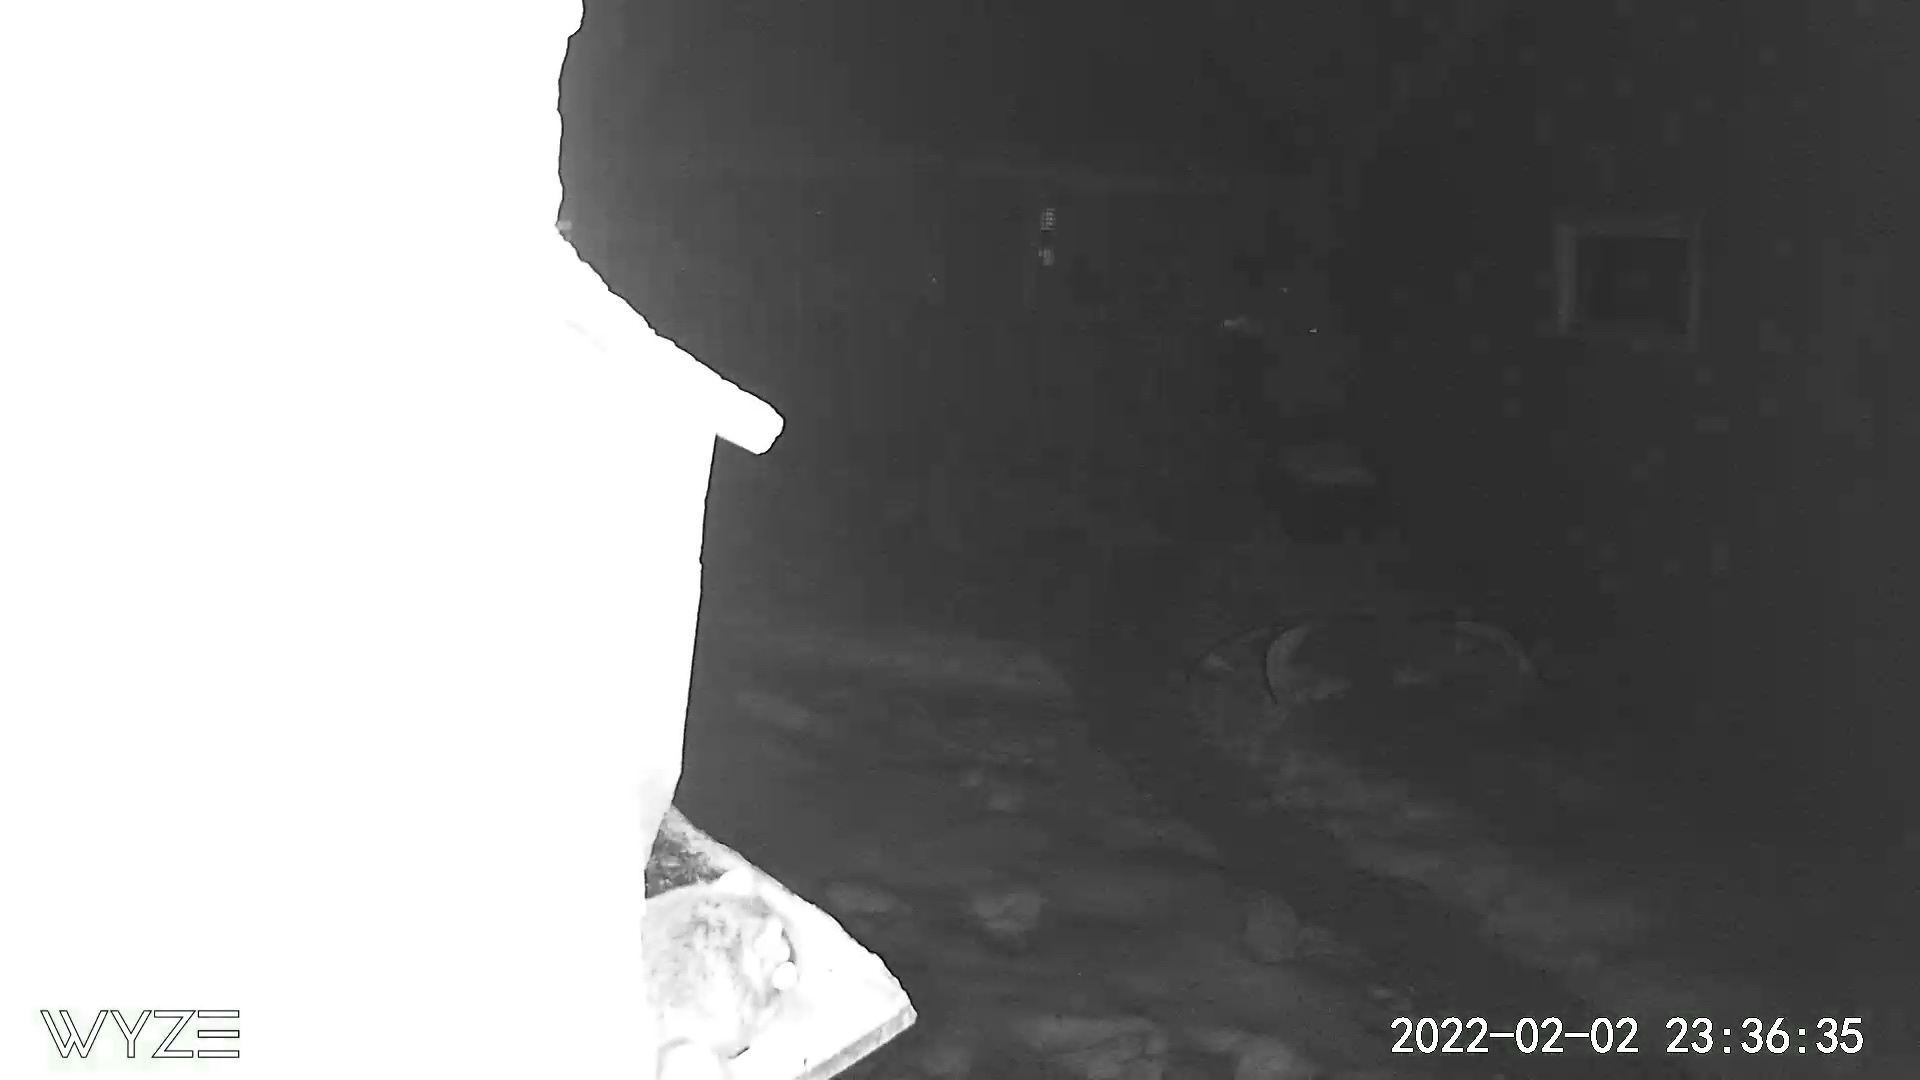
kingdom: Animalia
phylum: Chordata
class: Mammalia
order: Rodentia
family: Sciuridae
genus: Glaucomys
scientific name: Glaucomys volans
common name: Southern flying squirrel
